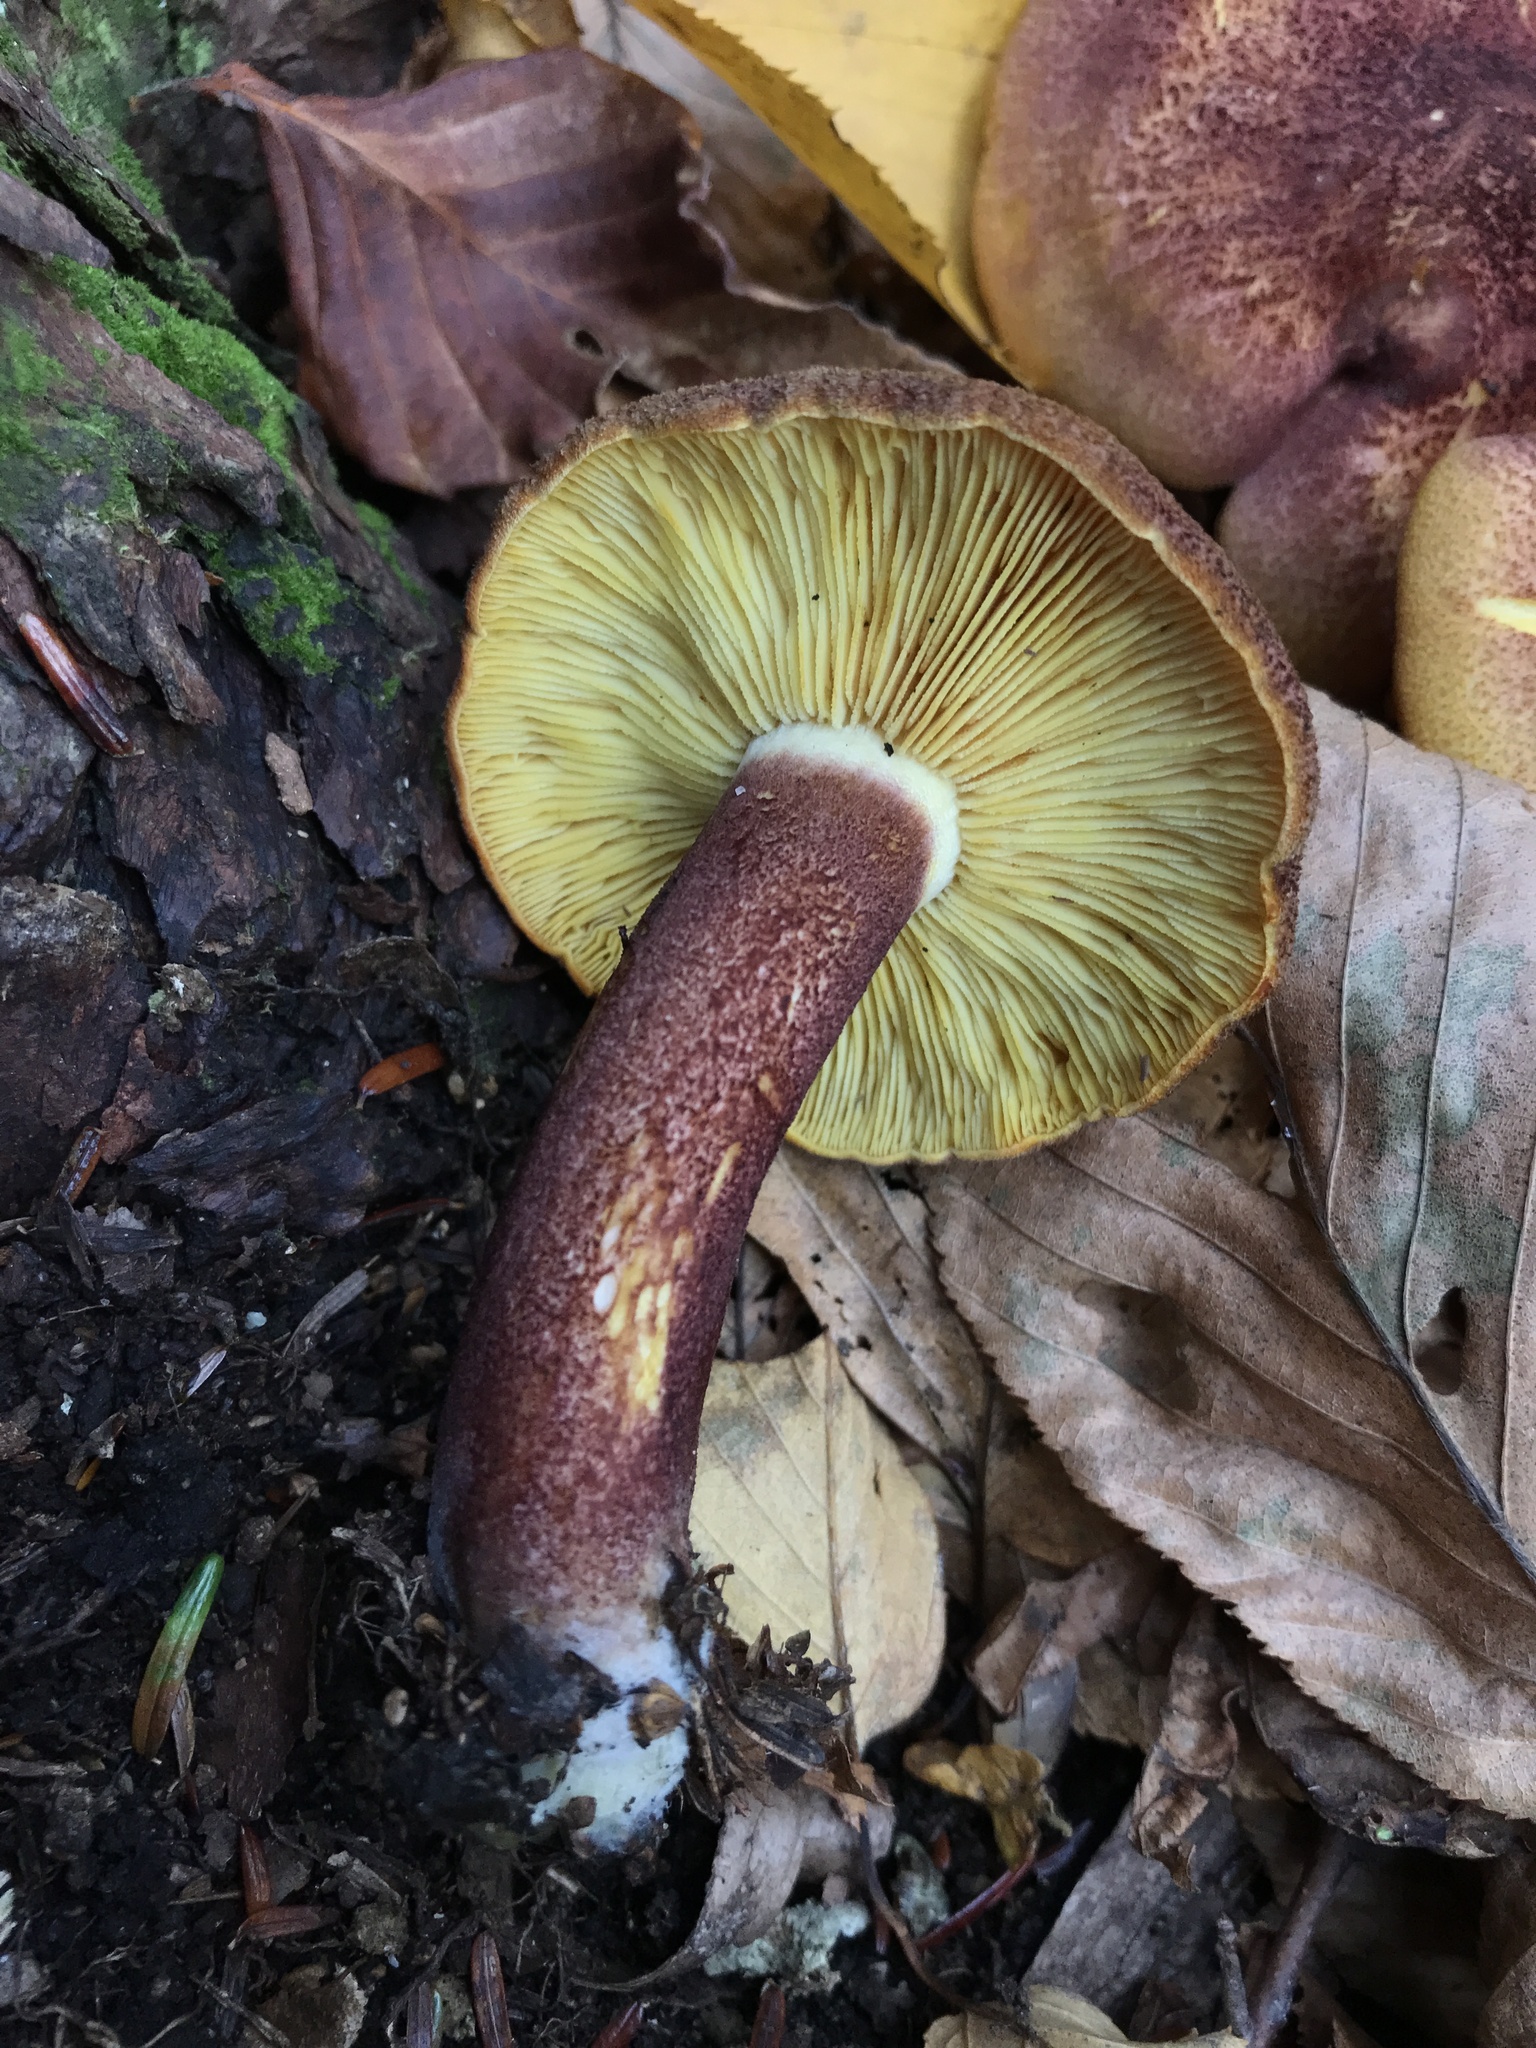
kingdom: Fungi
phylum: Basidiomycota
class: Agaricomycetes
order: Agaricales
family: Tricholomataceae
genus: Tricholomopsis
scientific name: Tricholomopsis rutilans
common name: Plums and custard
